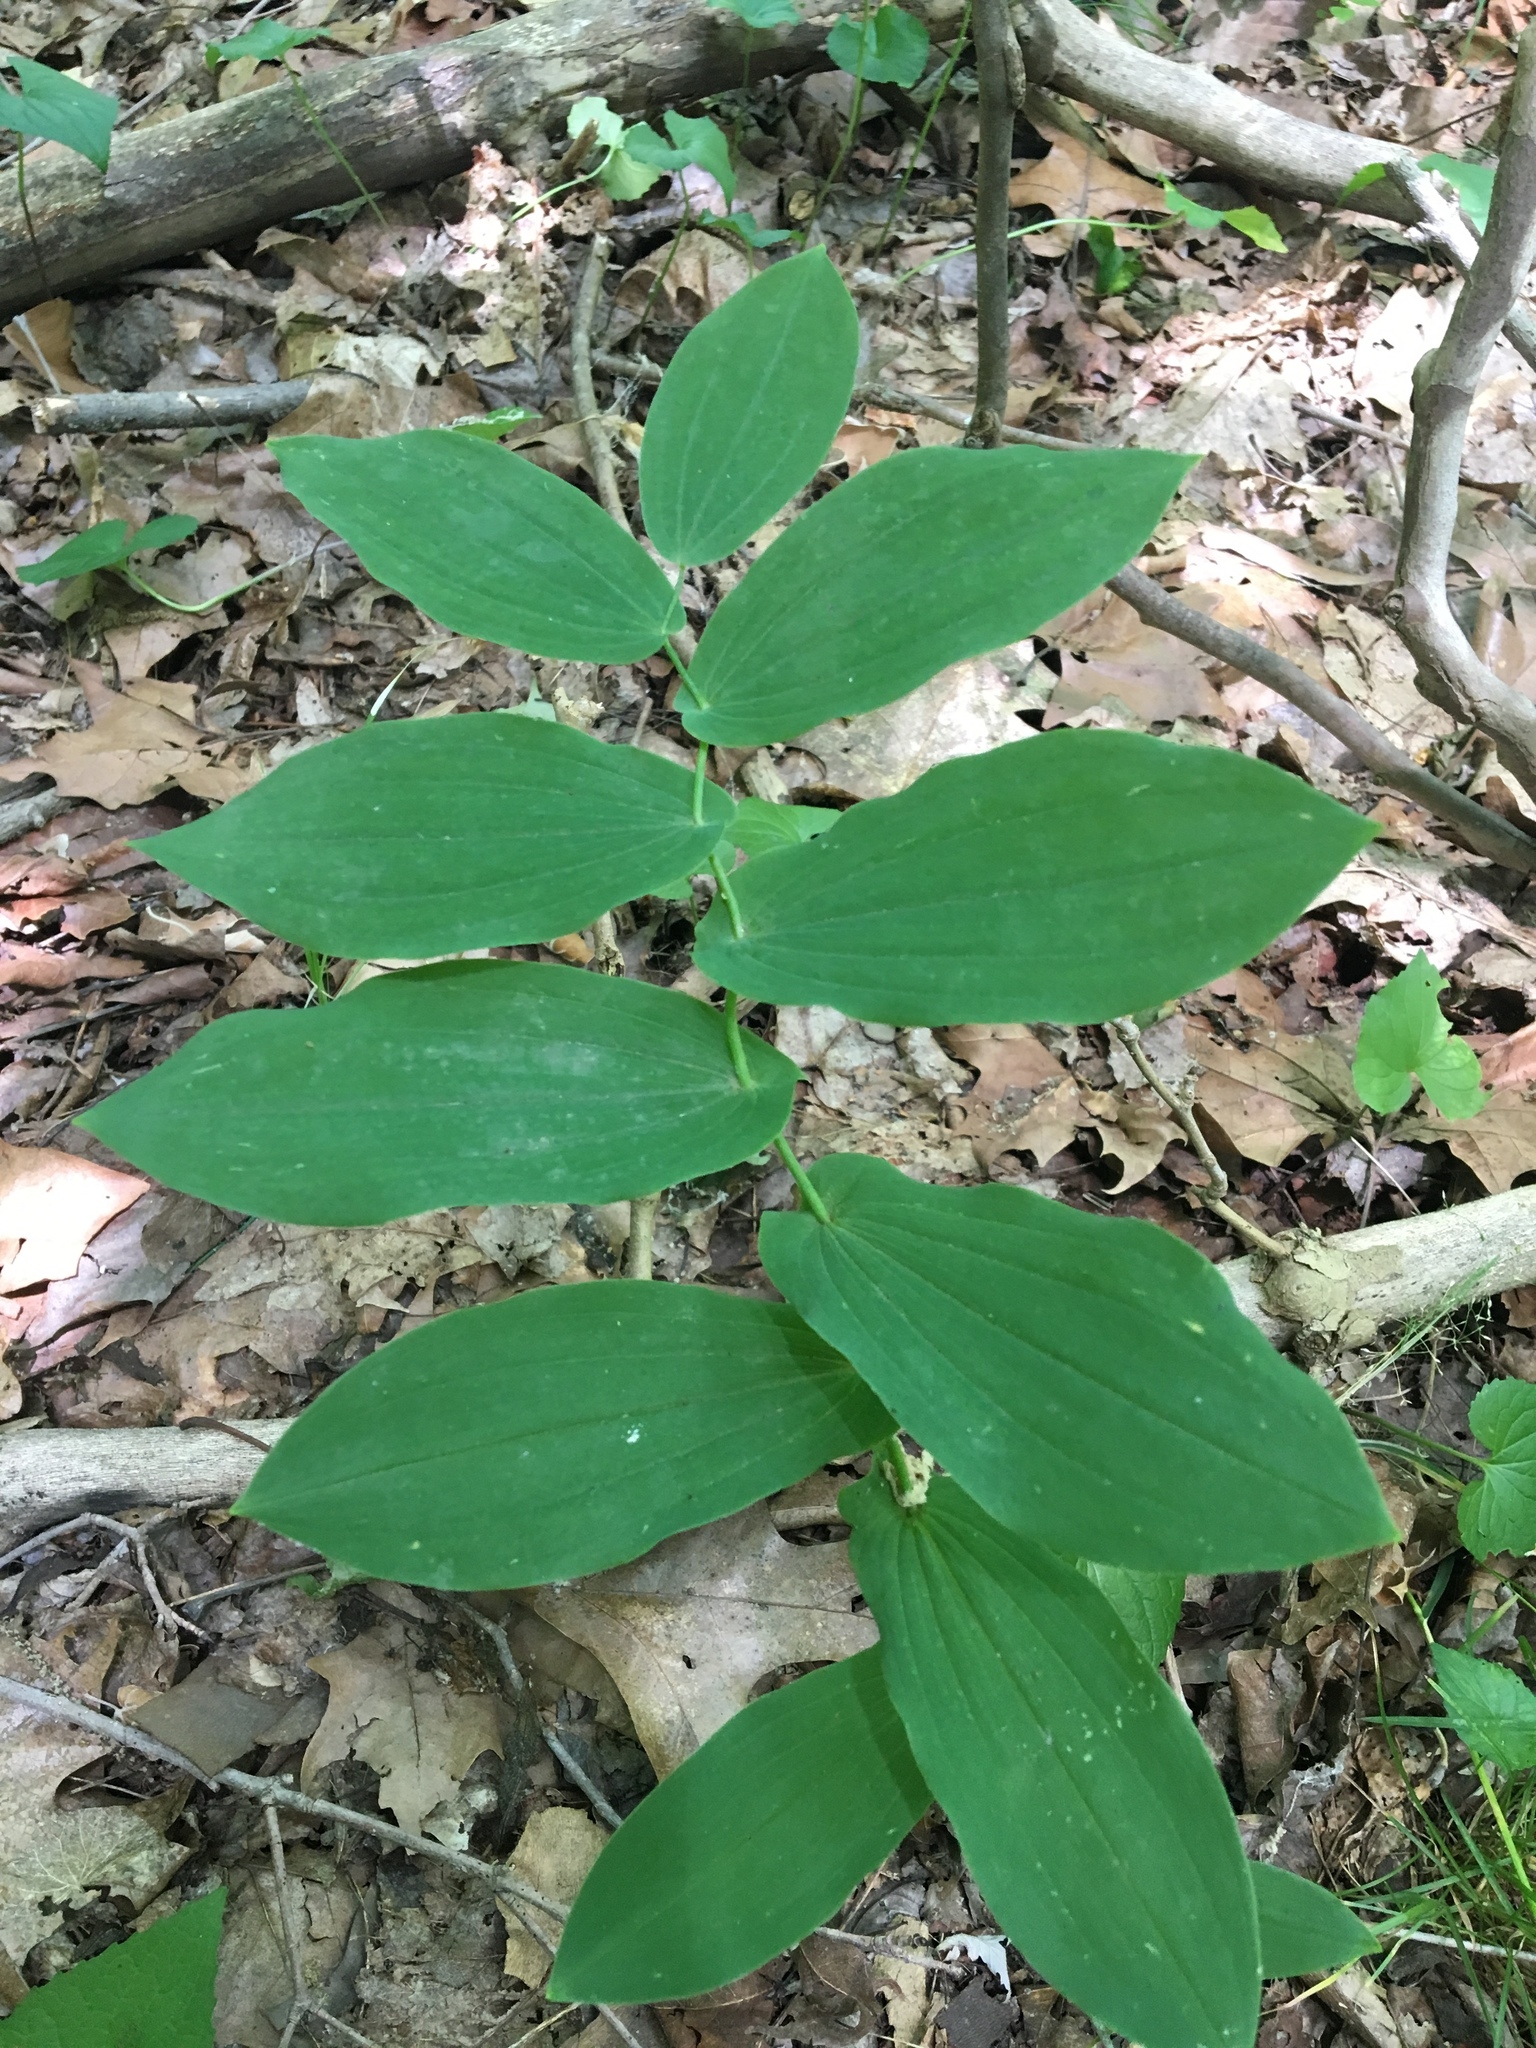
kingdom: Plantae
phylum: Tracheophyta
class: Liliopsida
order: Liliales
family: Colchicaceae
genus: Uvularia
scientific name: Uvularia grandiflora
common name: Bellwort
